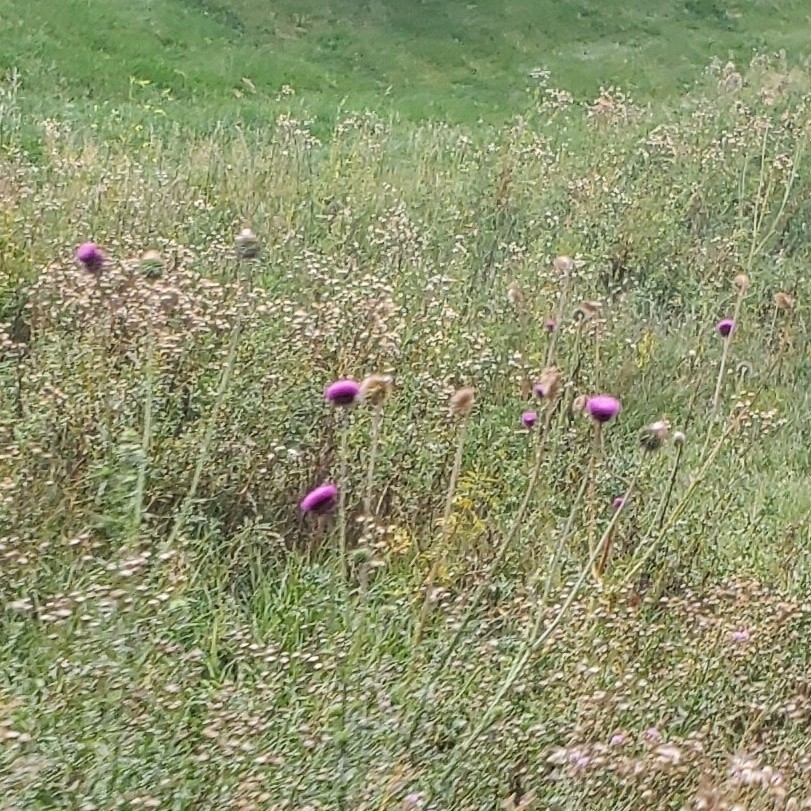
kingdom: Plantae
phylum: Tracheophyta
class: Magnoliopsida
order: Asterales
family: Asteraceae
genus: Carduus
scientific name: Carduus nutans
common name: Musk thistle
